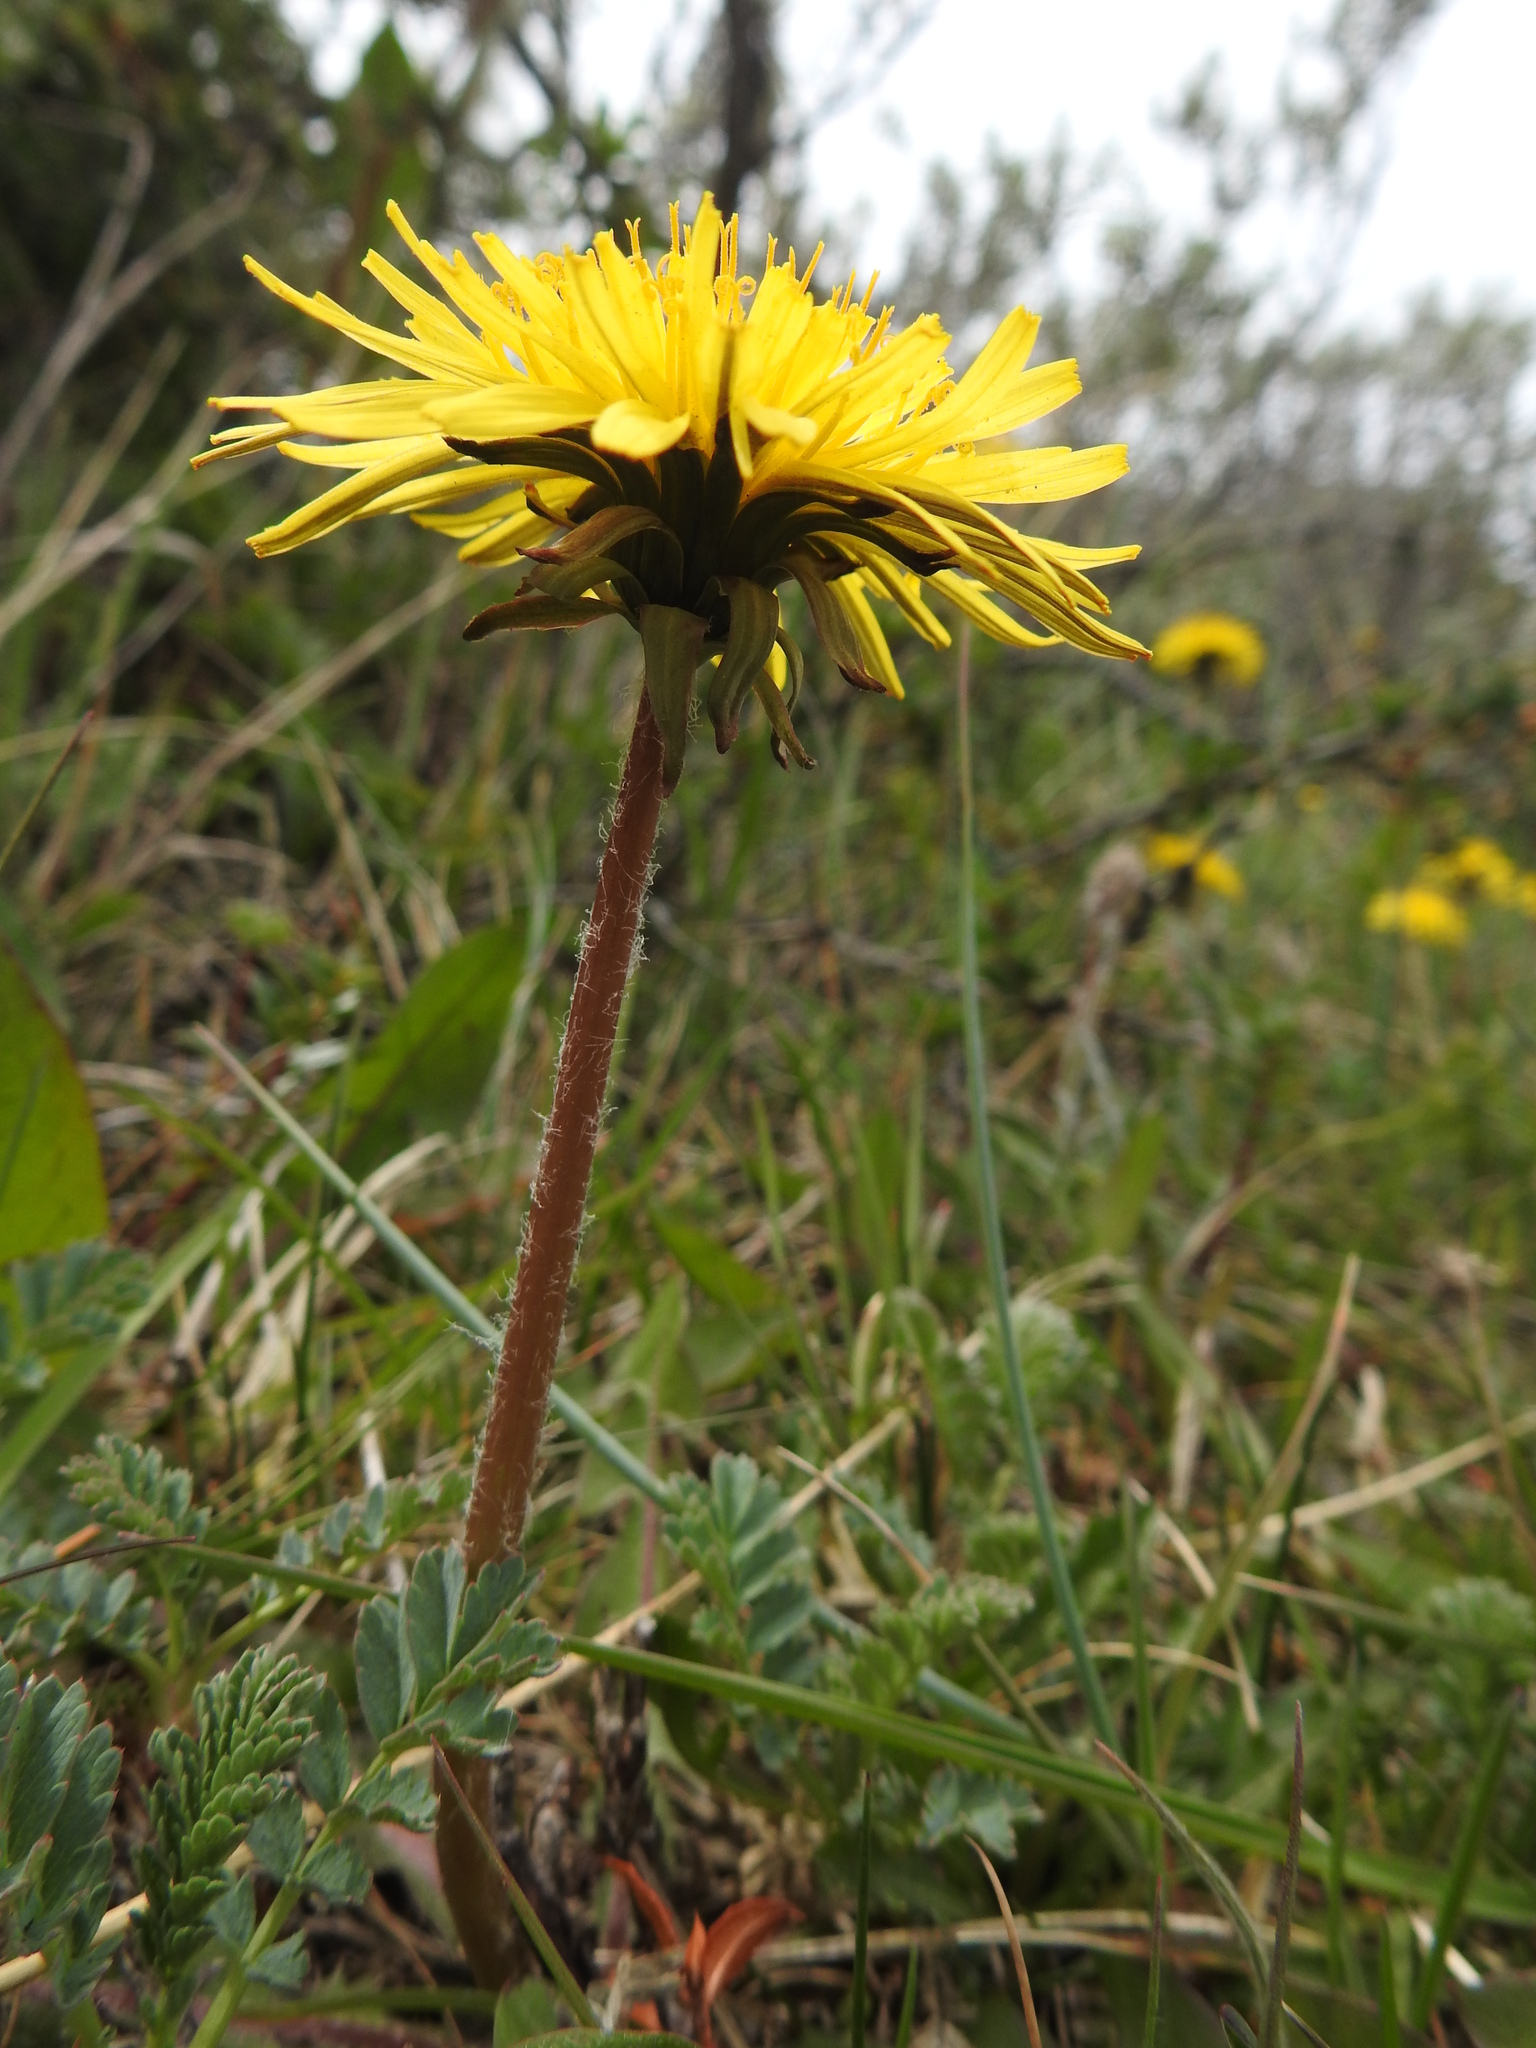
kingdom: Plantae
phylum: Tracheophyta
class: Magnoliopsida
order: Asterales
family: Asteraceae
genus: Taraxacum
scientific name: Taraxacum officinale
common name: Common dandelion
